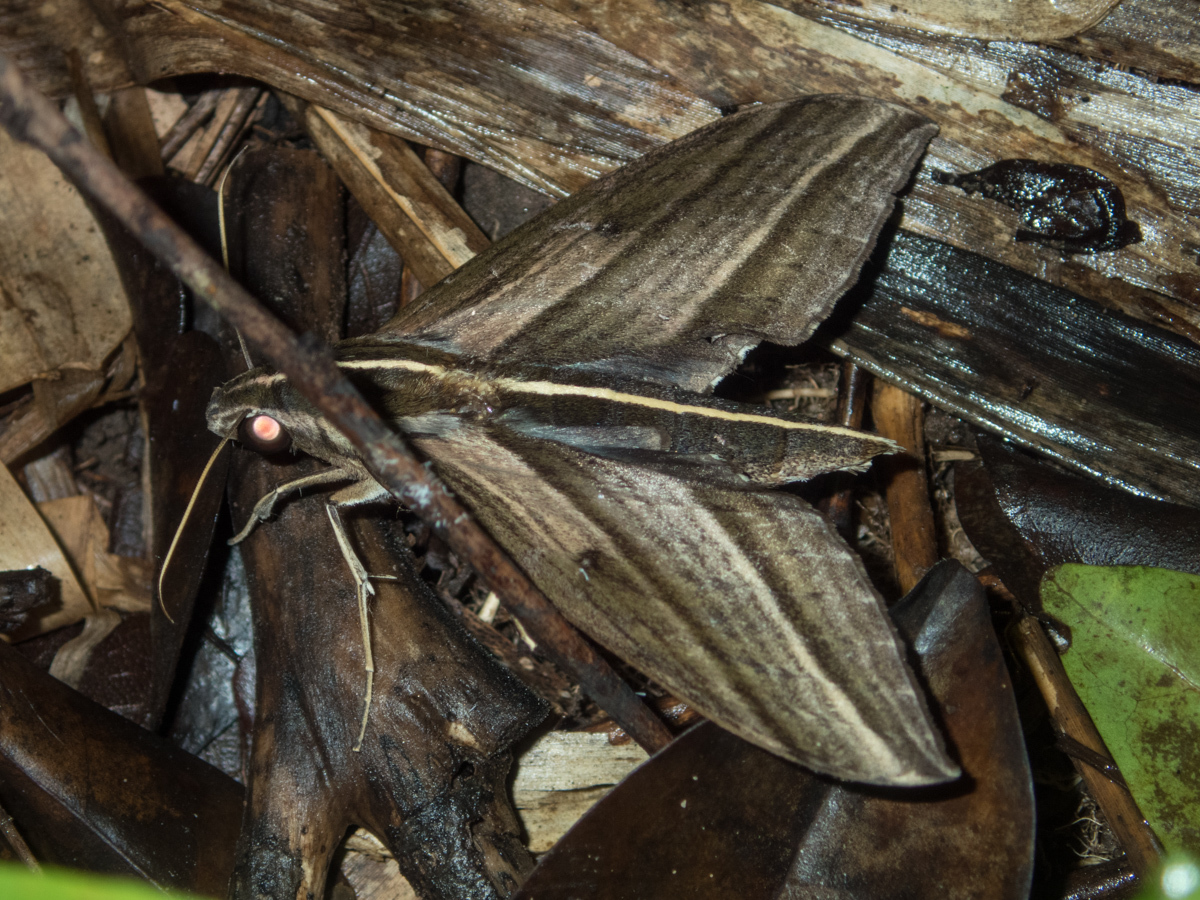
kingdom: Animalia
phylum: Arthropoda
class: Insecta
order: Lepidoptera
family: Sphingidae
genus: Elibia
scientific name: Elibia dolichus
